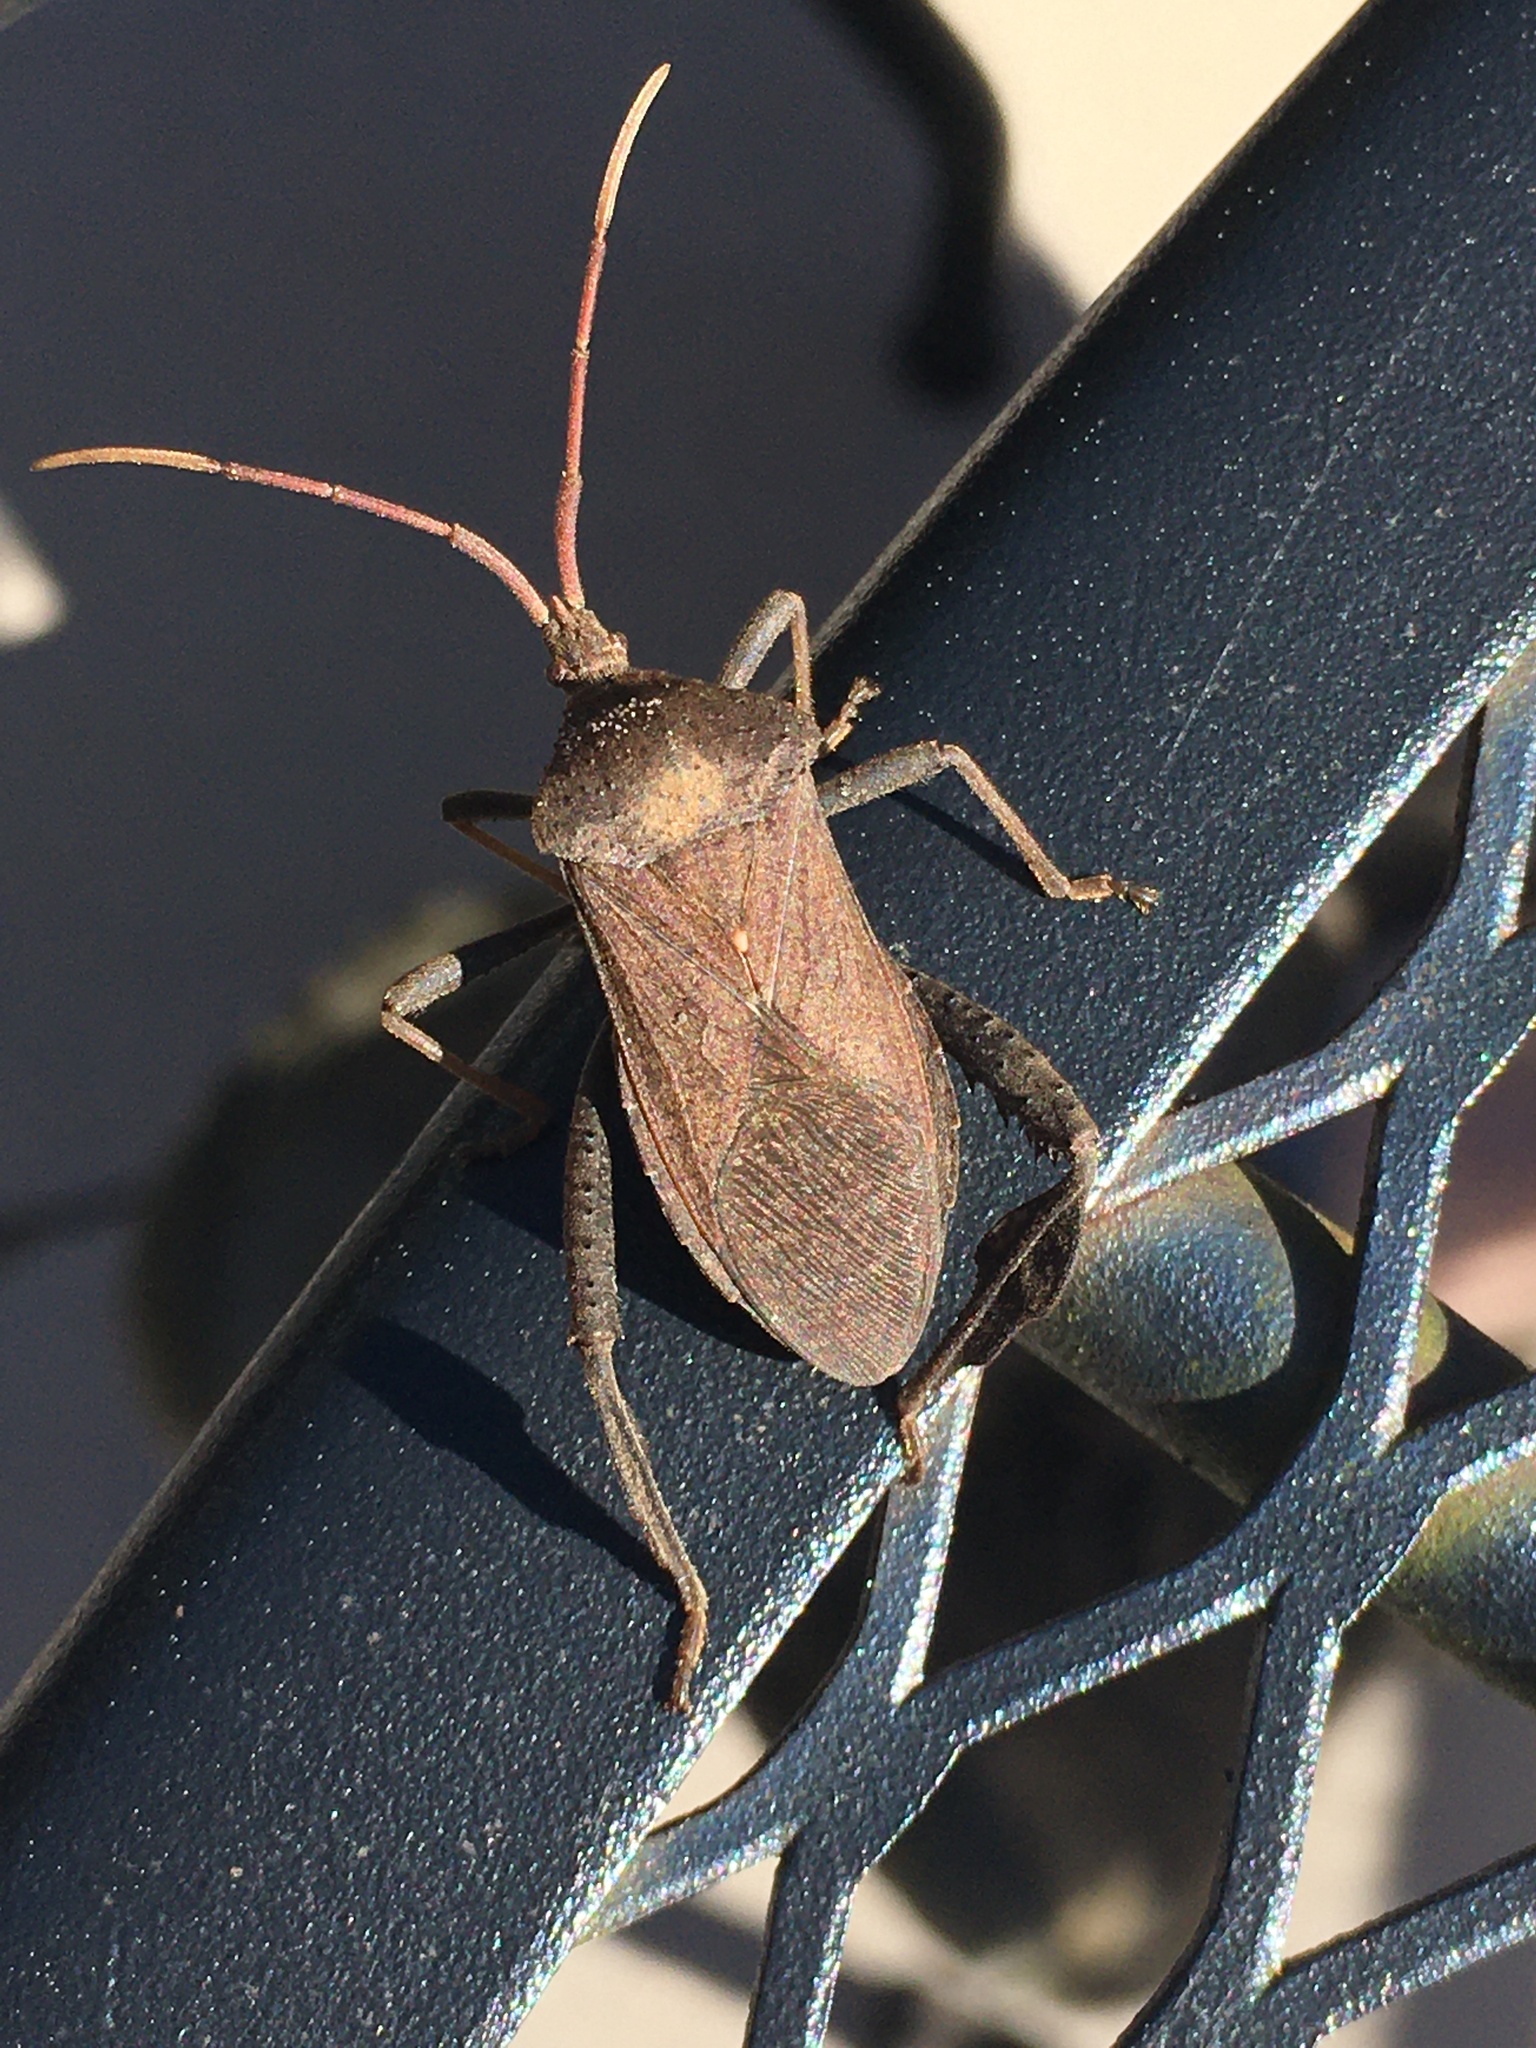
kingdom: Animalia
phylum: Arthropoda
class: Insecta
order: Hemiptera
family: Coreidae
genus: Acanthocephala
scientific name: Acanthocephala terminalis
